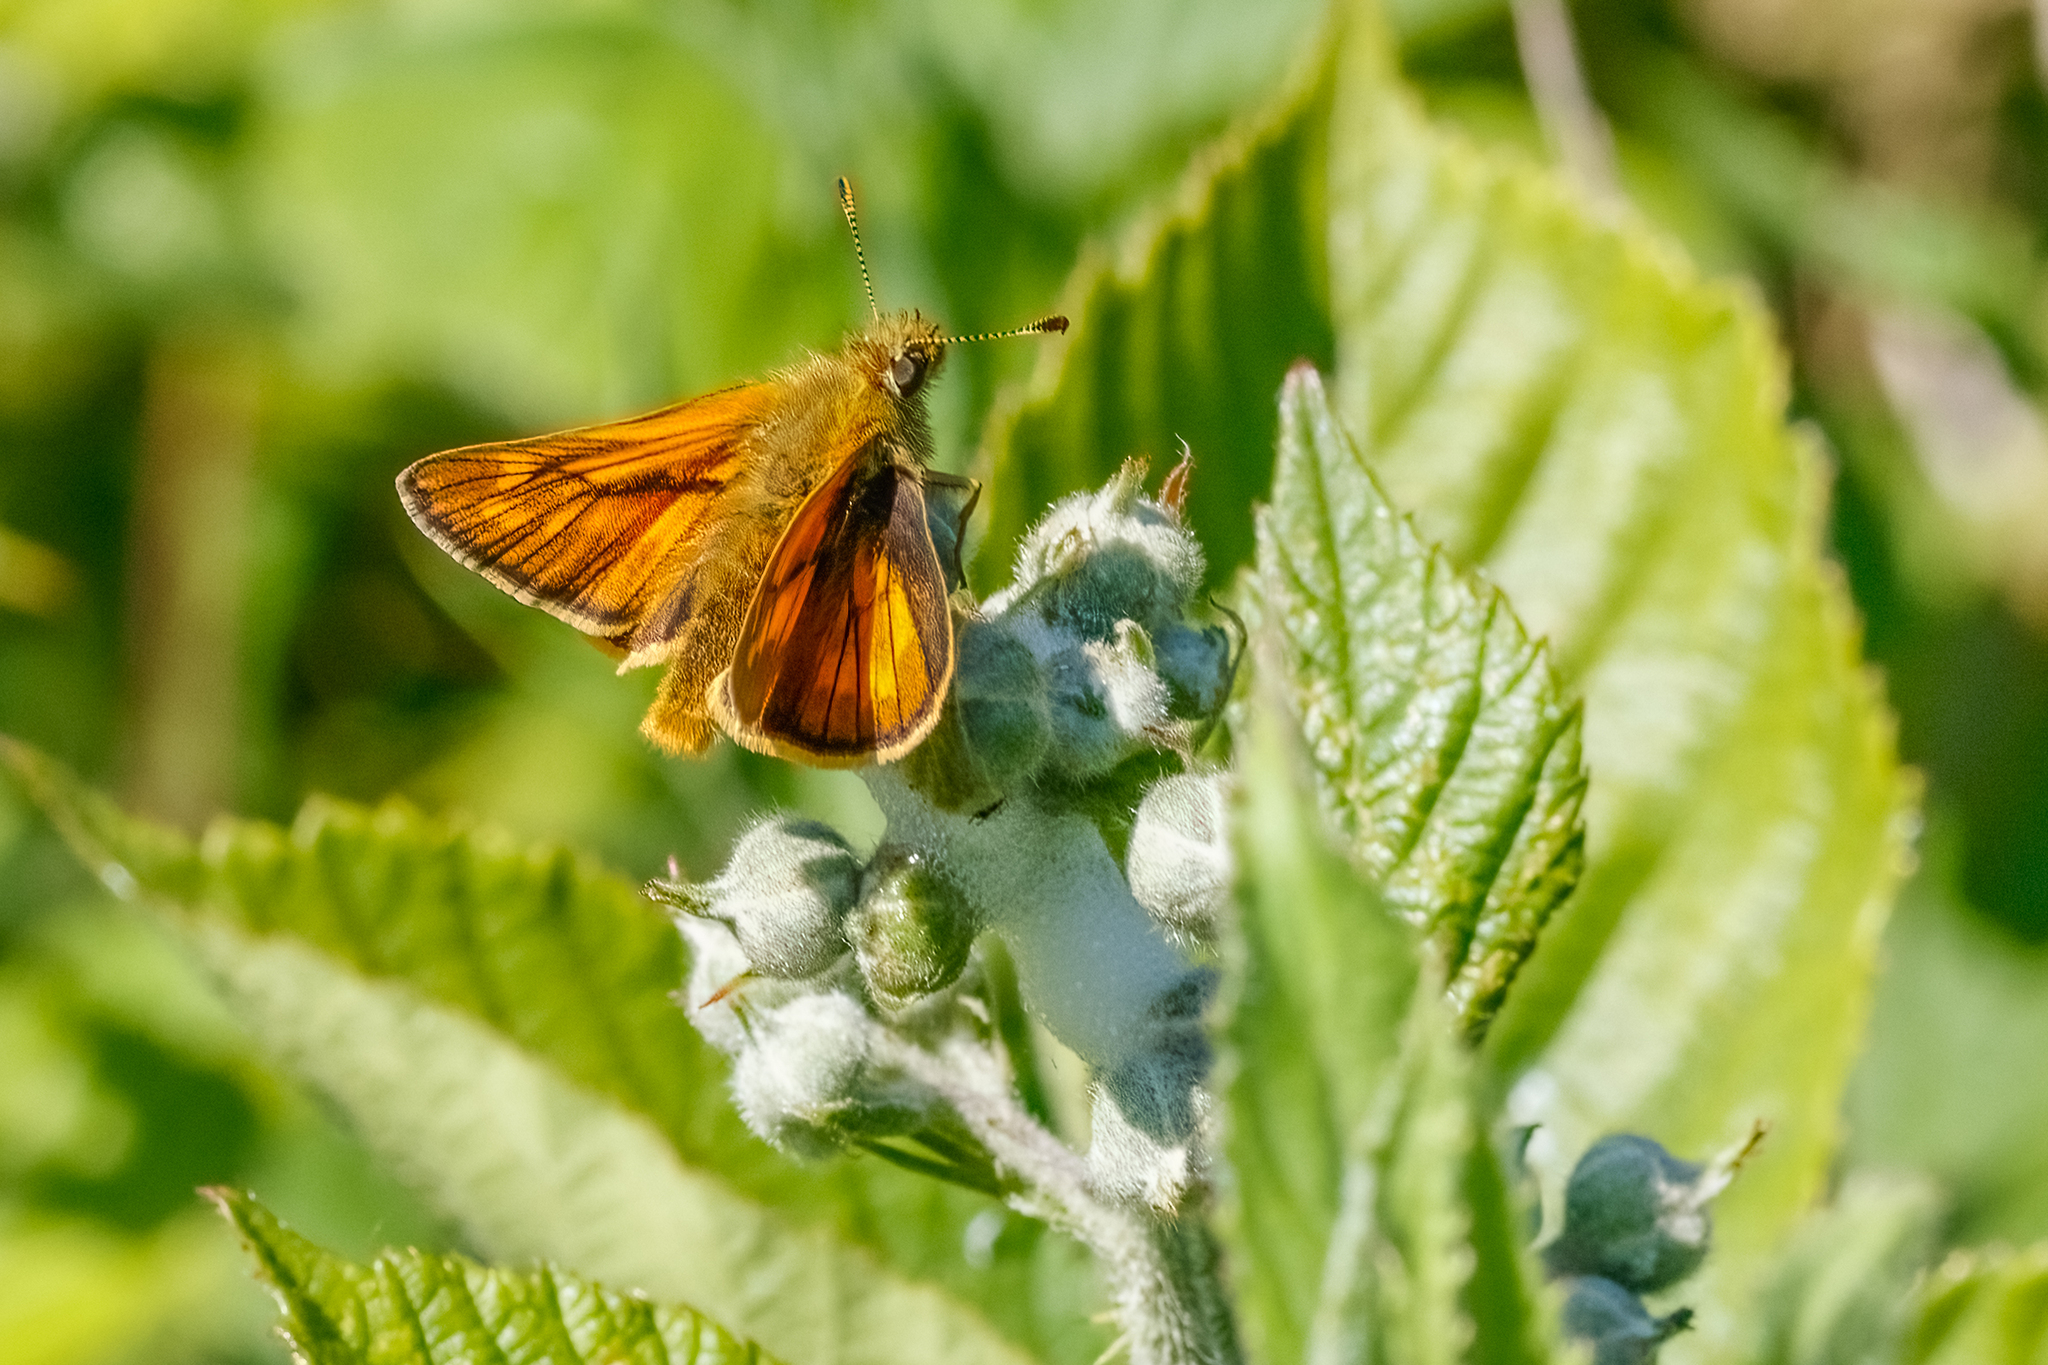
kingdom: Animalia
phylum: Arthropoda
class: Insecta
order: Lepidoptera
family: Hesperiidae
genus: Ochlodes
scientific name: Ochlodes venata
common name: Large skipper
